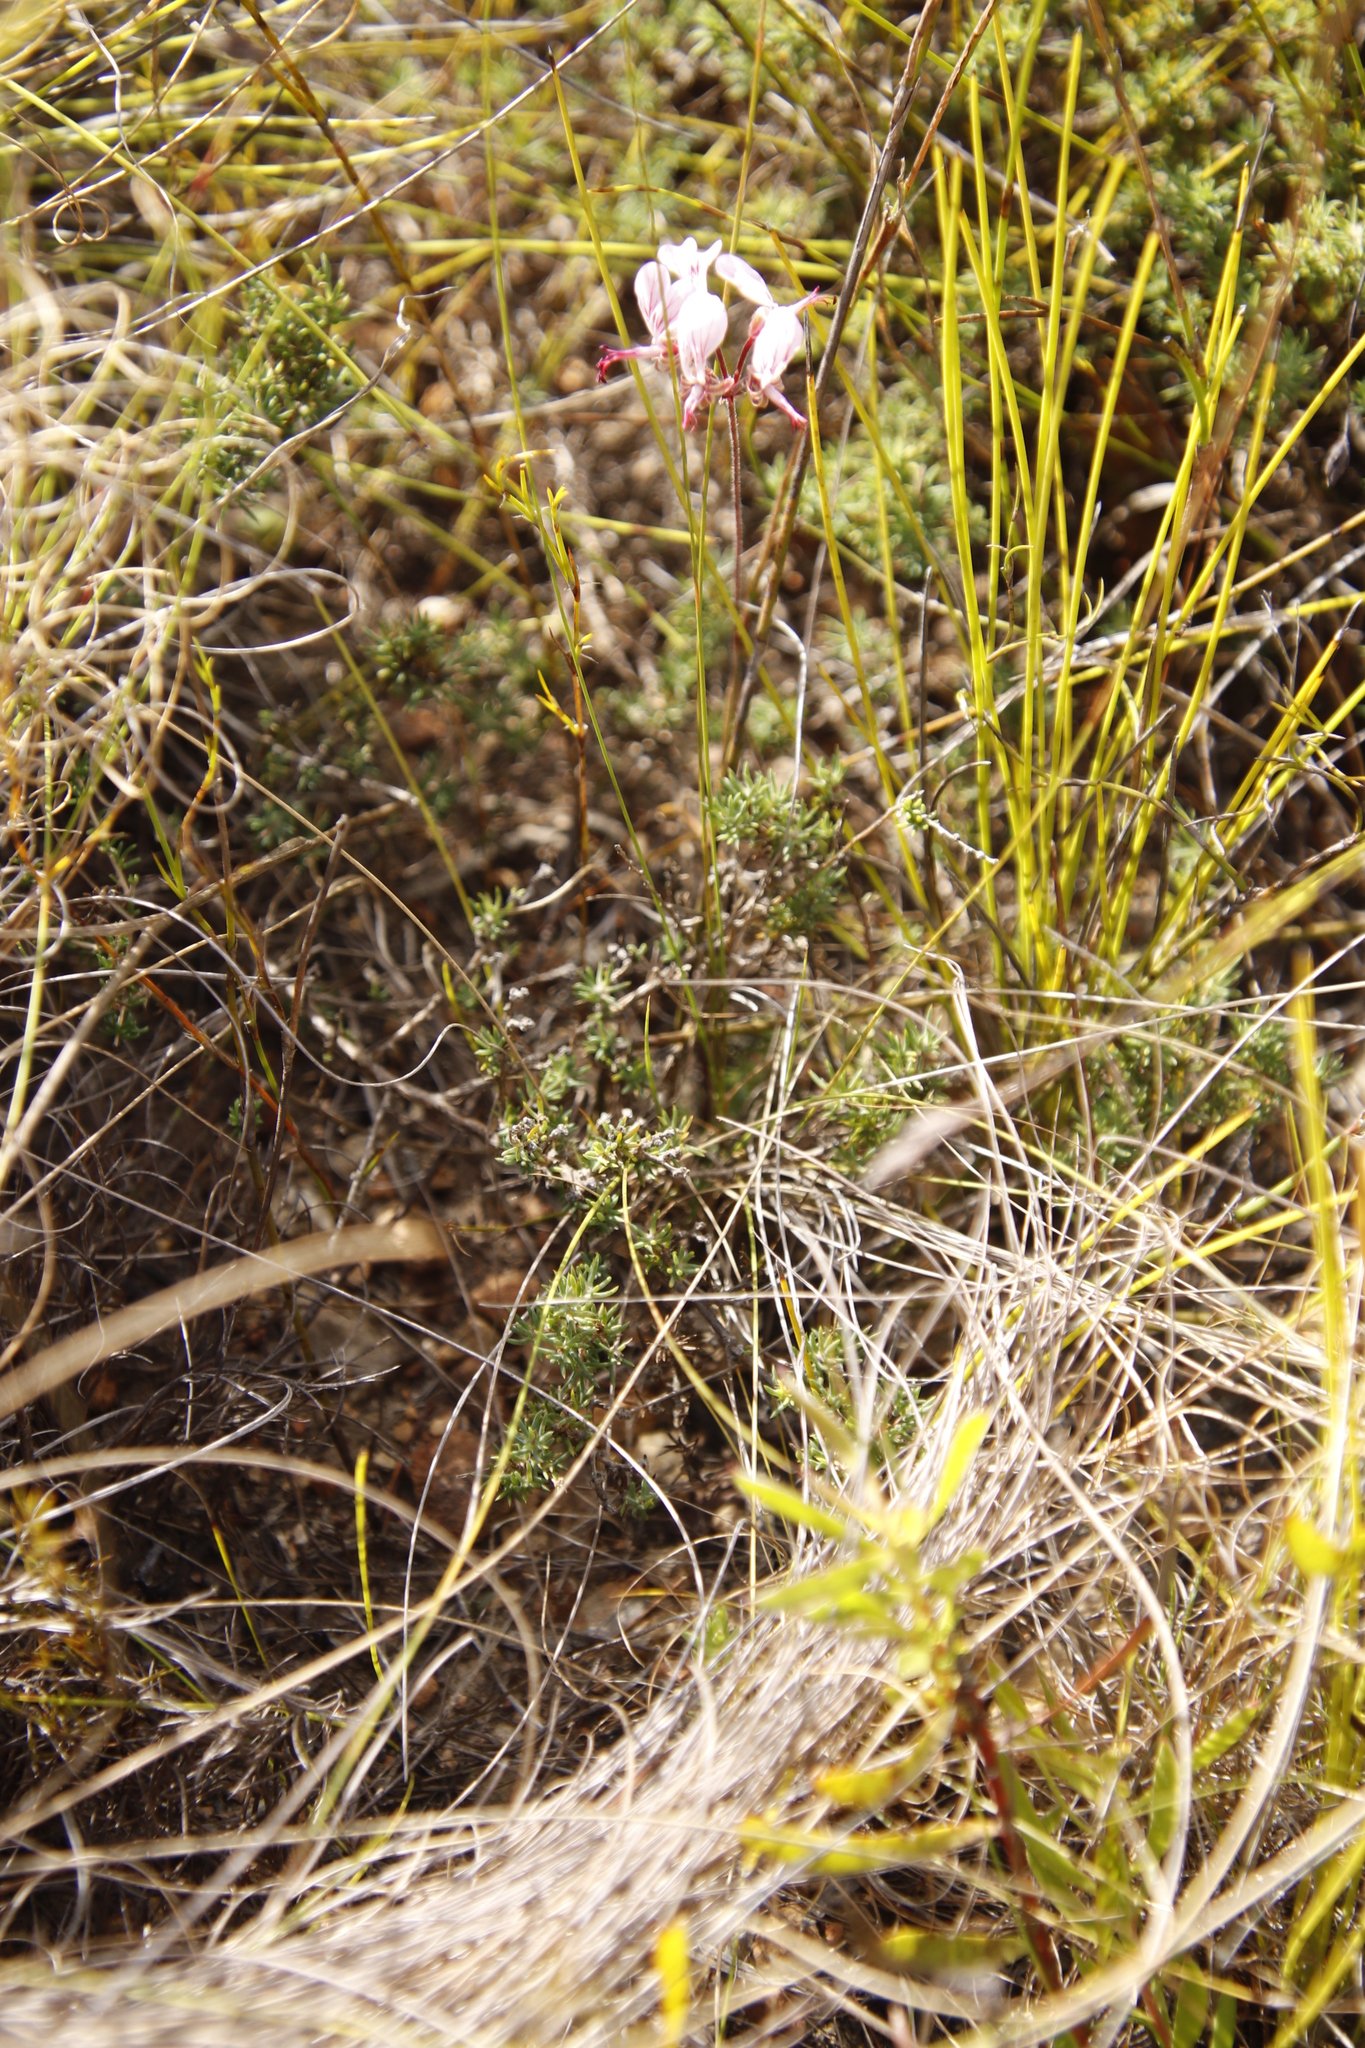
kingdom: Plantae
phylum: Tracheophyta
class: Magnoliopsida
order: Geraniales
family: Geraniaceae
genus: Pelargonium
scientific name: Pelargonium dipetalum
